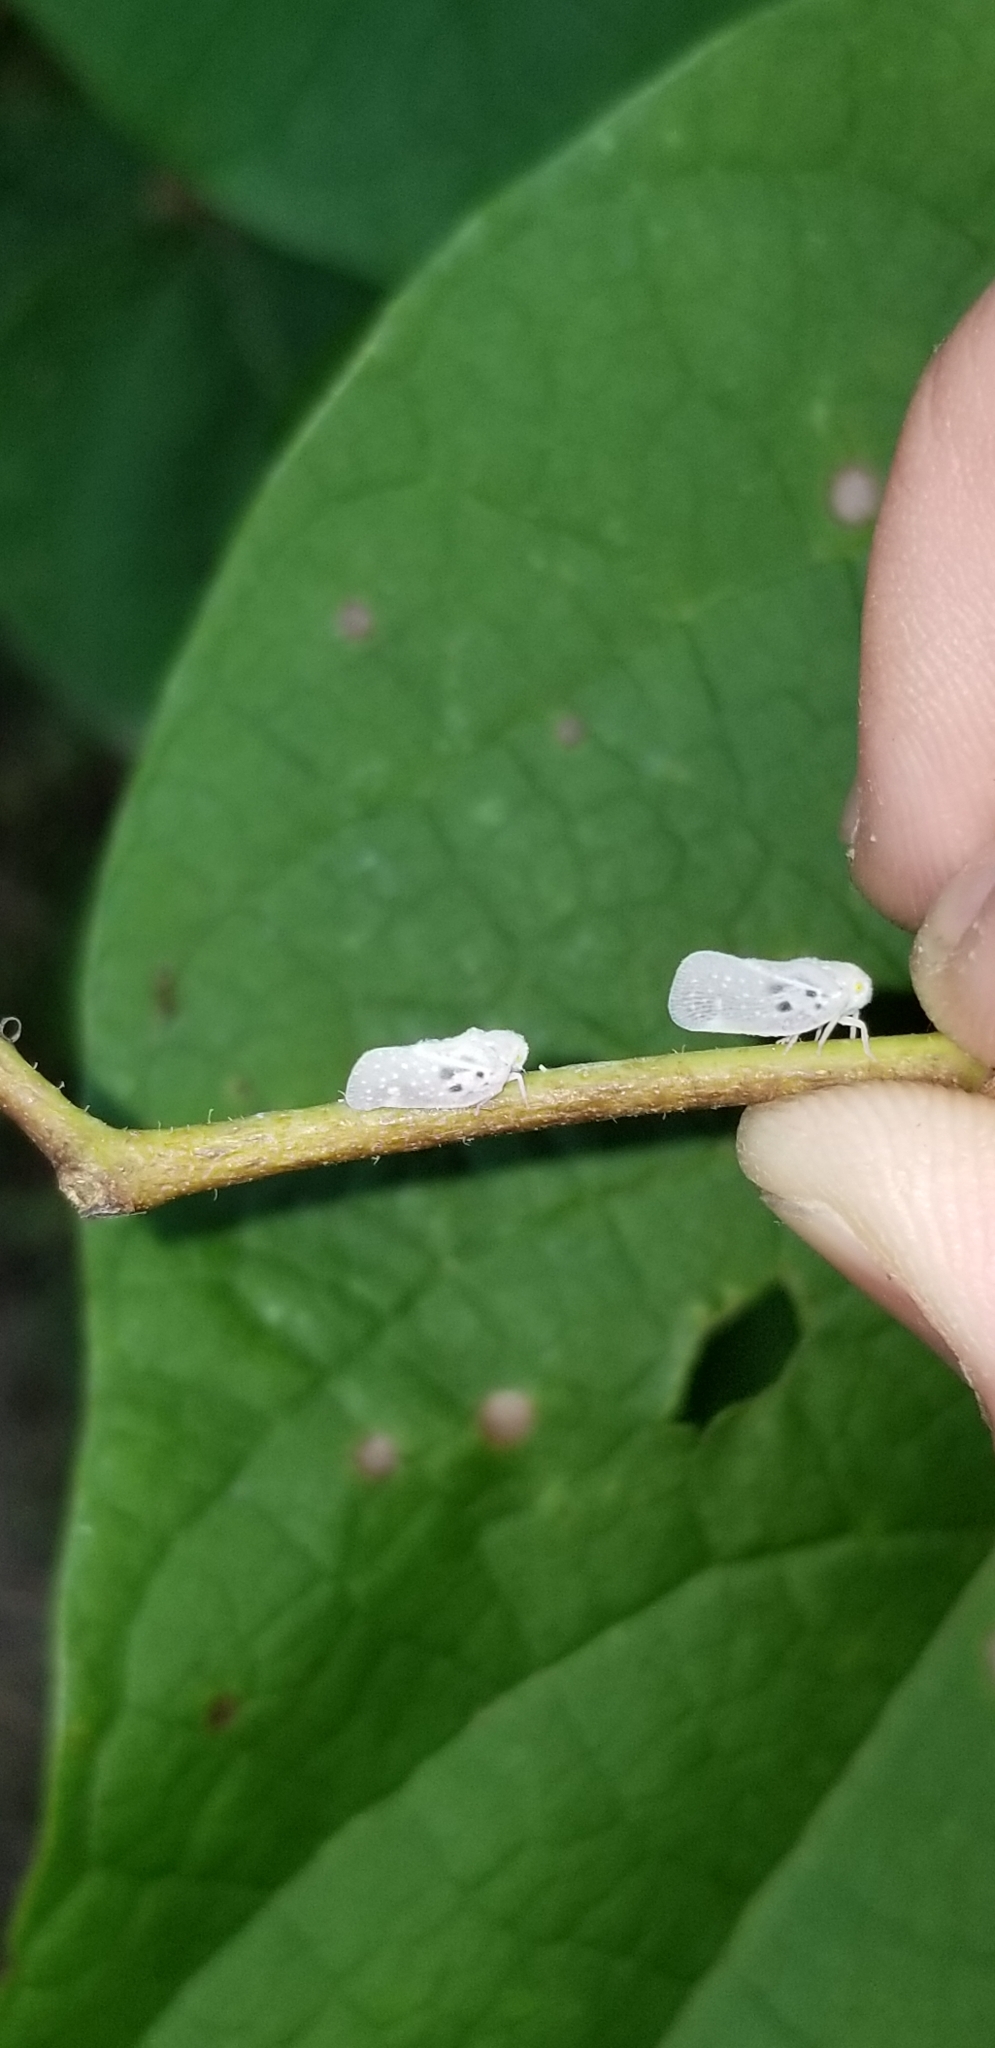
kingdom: Animalia
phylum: Arthropoda
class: Insecta
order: Hemiptera
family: Flatidae
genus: Metcalfa
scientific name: Metcalfa pruinosa
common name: Citrus flatid planthopper
